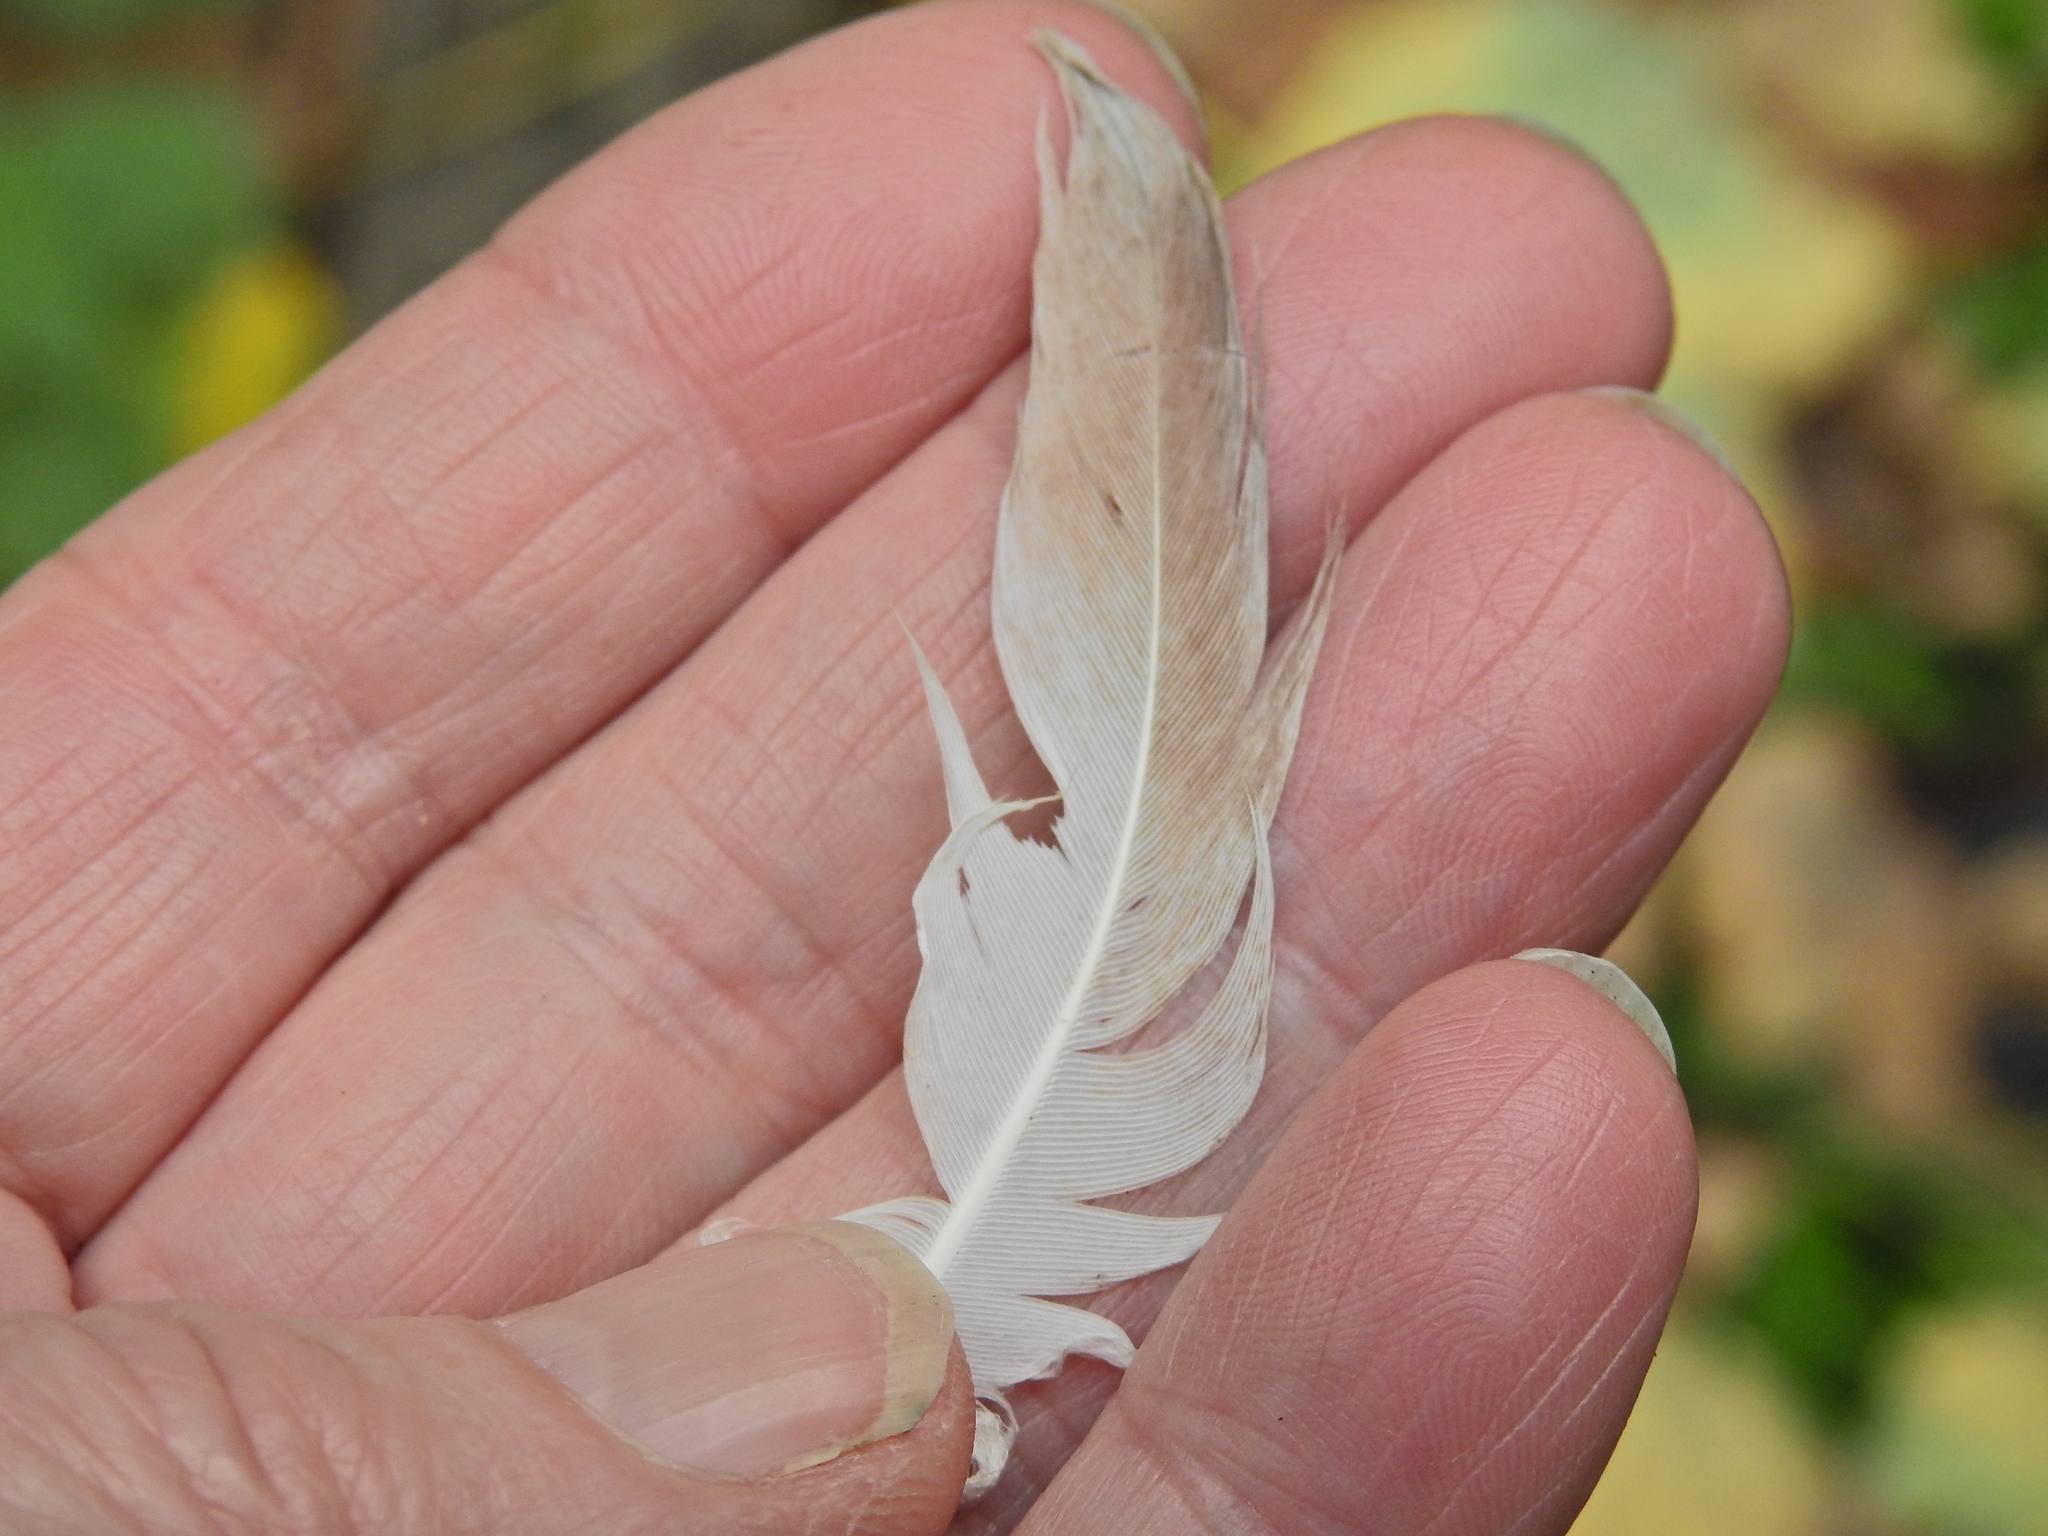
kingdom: Animalia
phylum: Chordata
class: Aves
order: Columbiformes
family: Columbidae
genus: Columba
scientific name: Columba livia
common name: Rock pigeon
